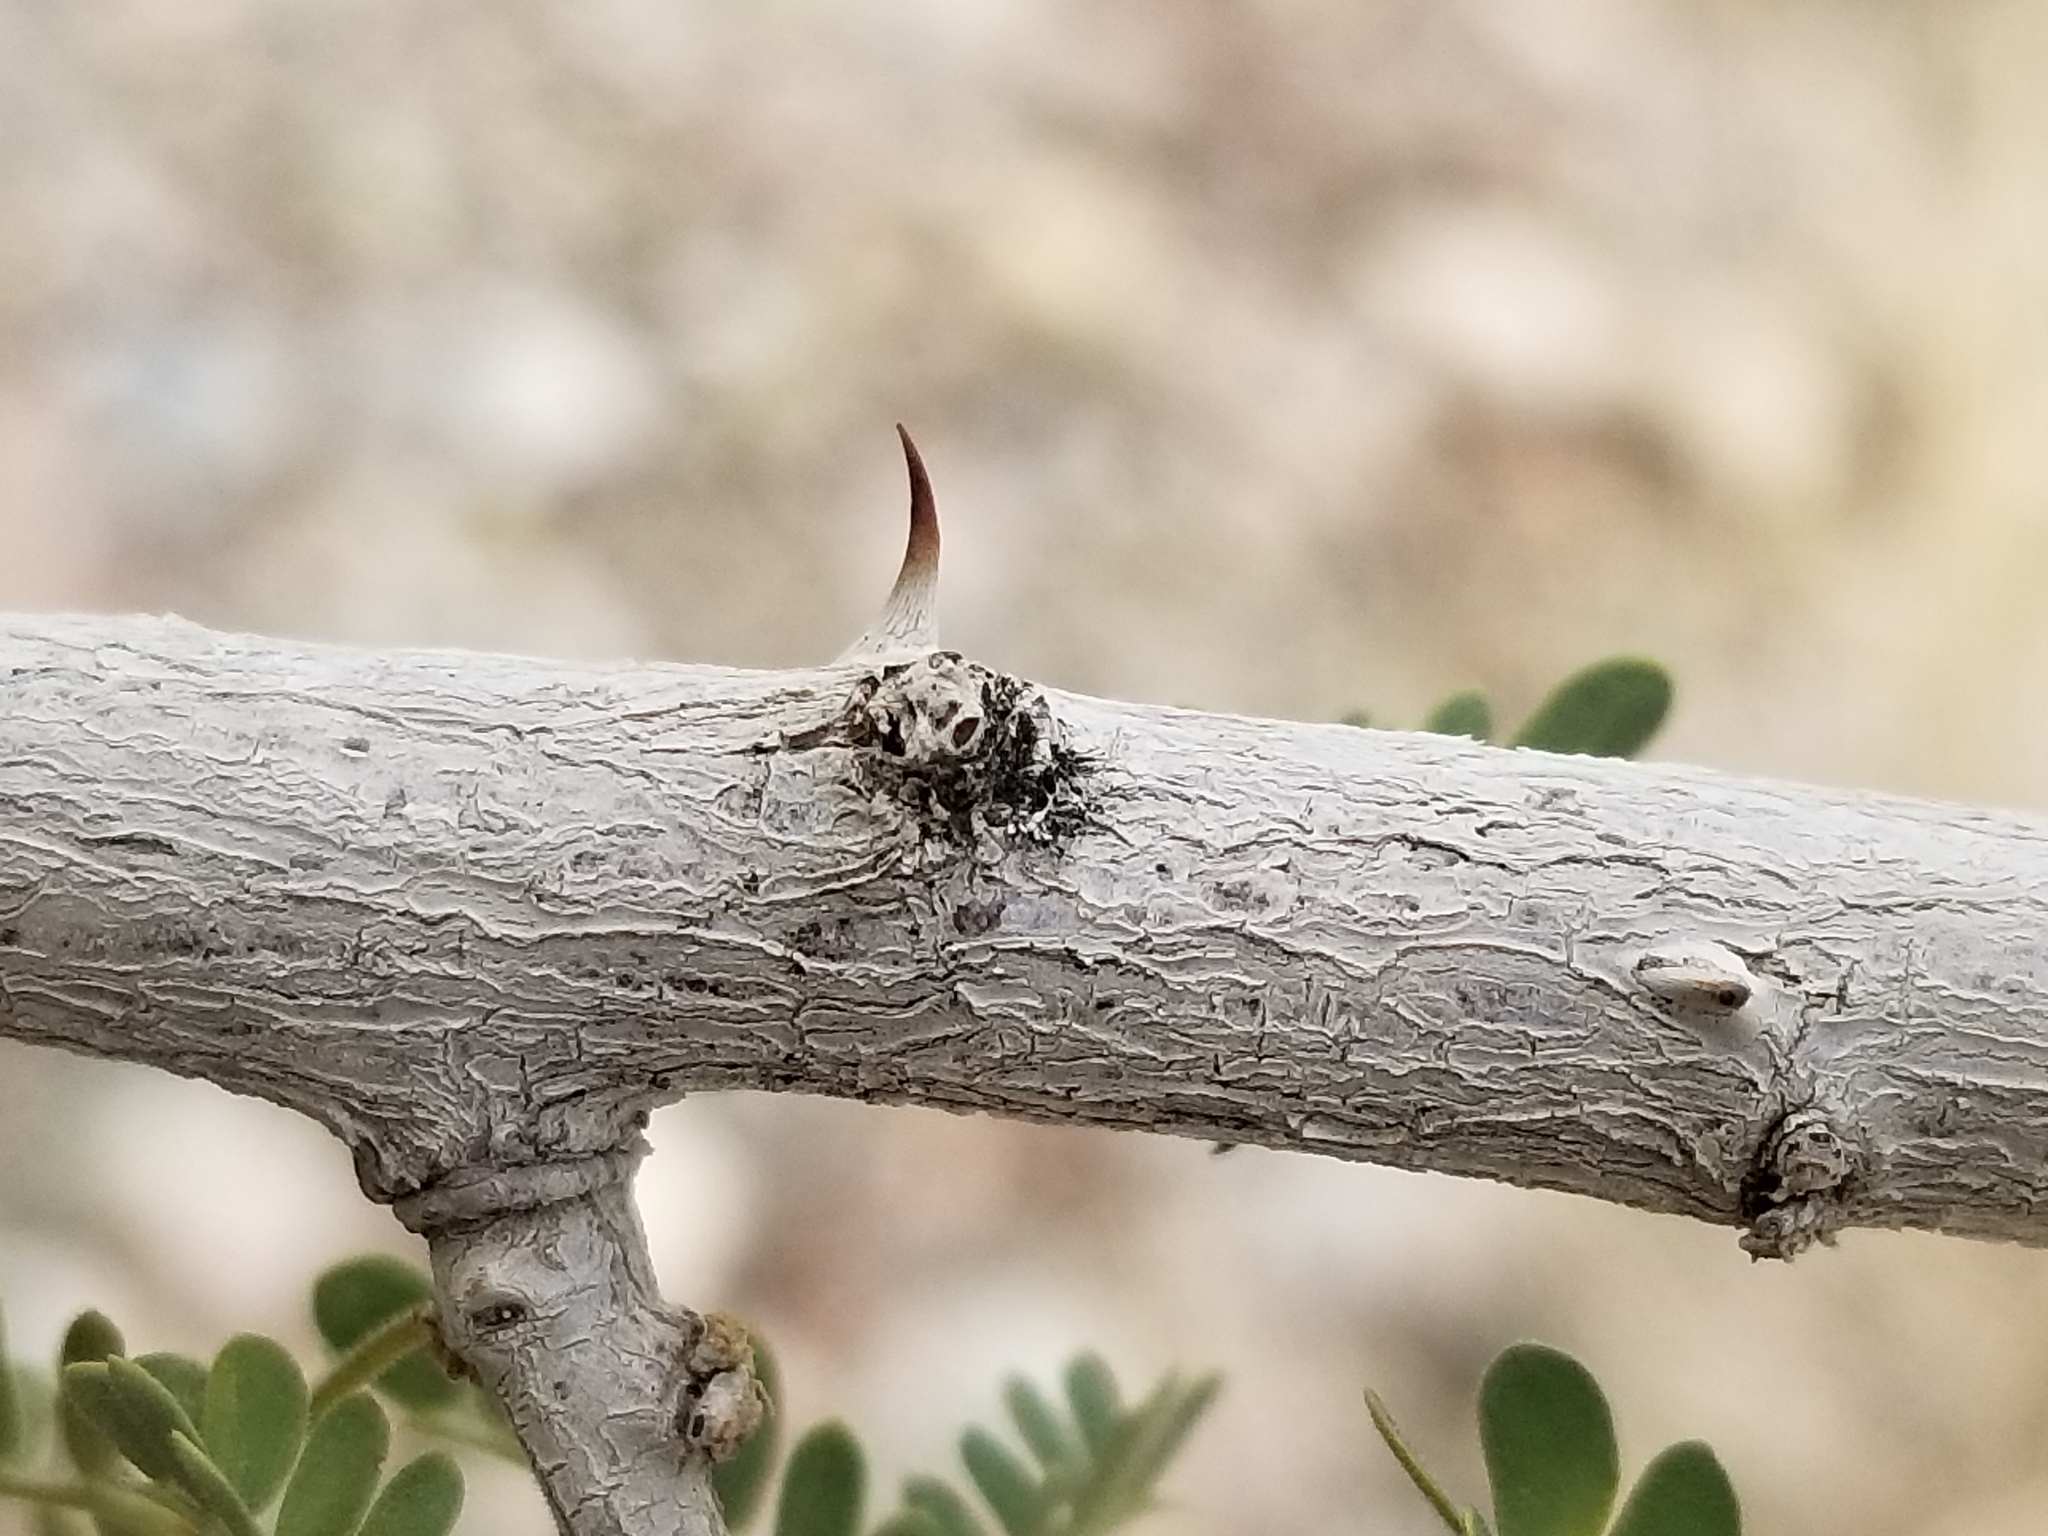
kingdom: Plantae
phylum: Tracheophyta
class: Magnoliopsida
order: Fabales
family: Fabaceae
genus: Senegalia
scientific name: Senegalia greggii
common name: Texas-mimosa
